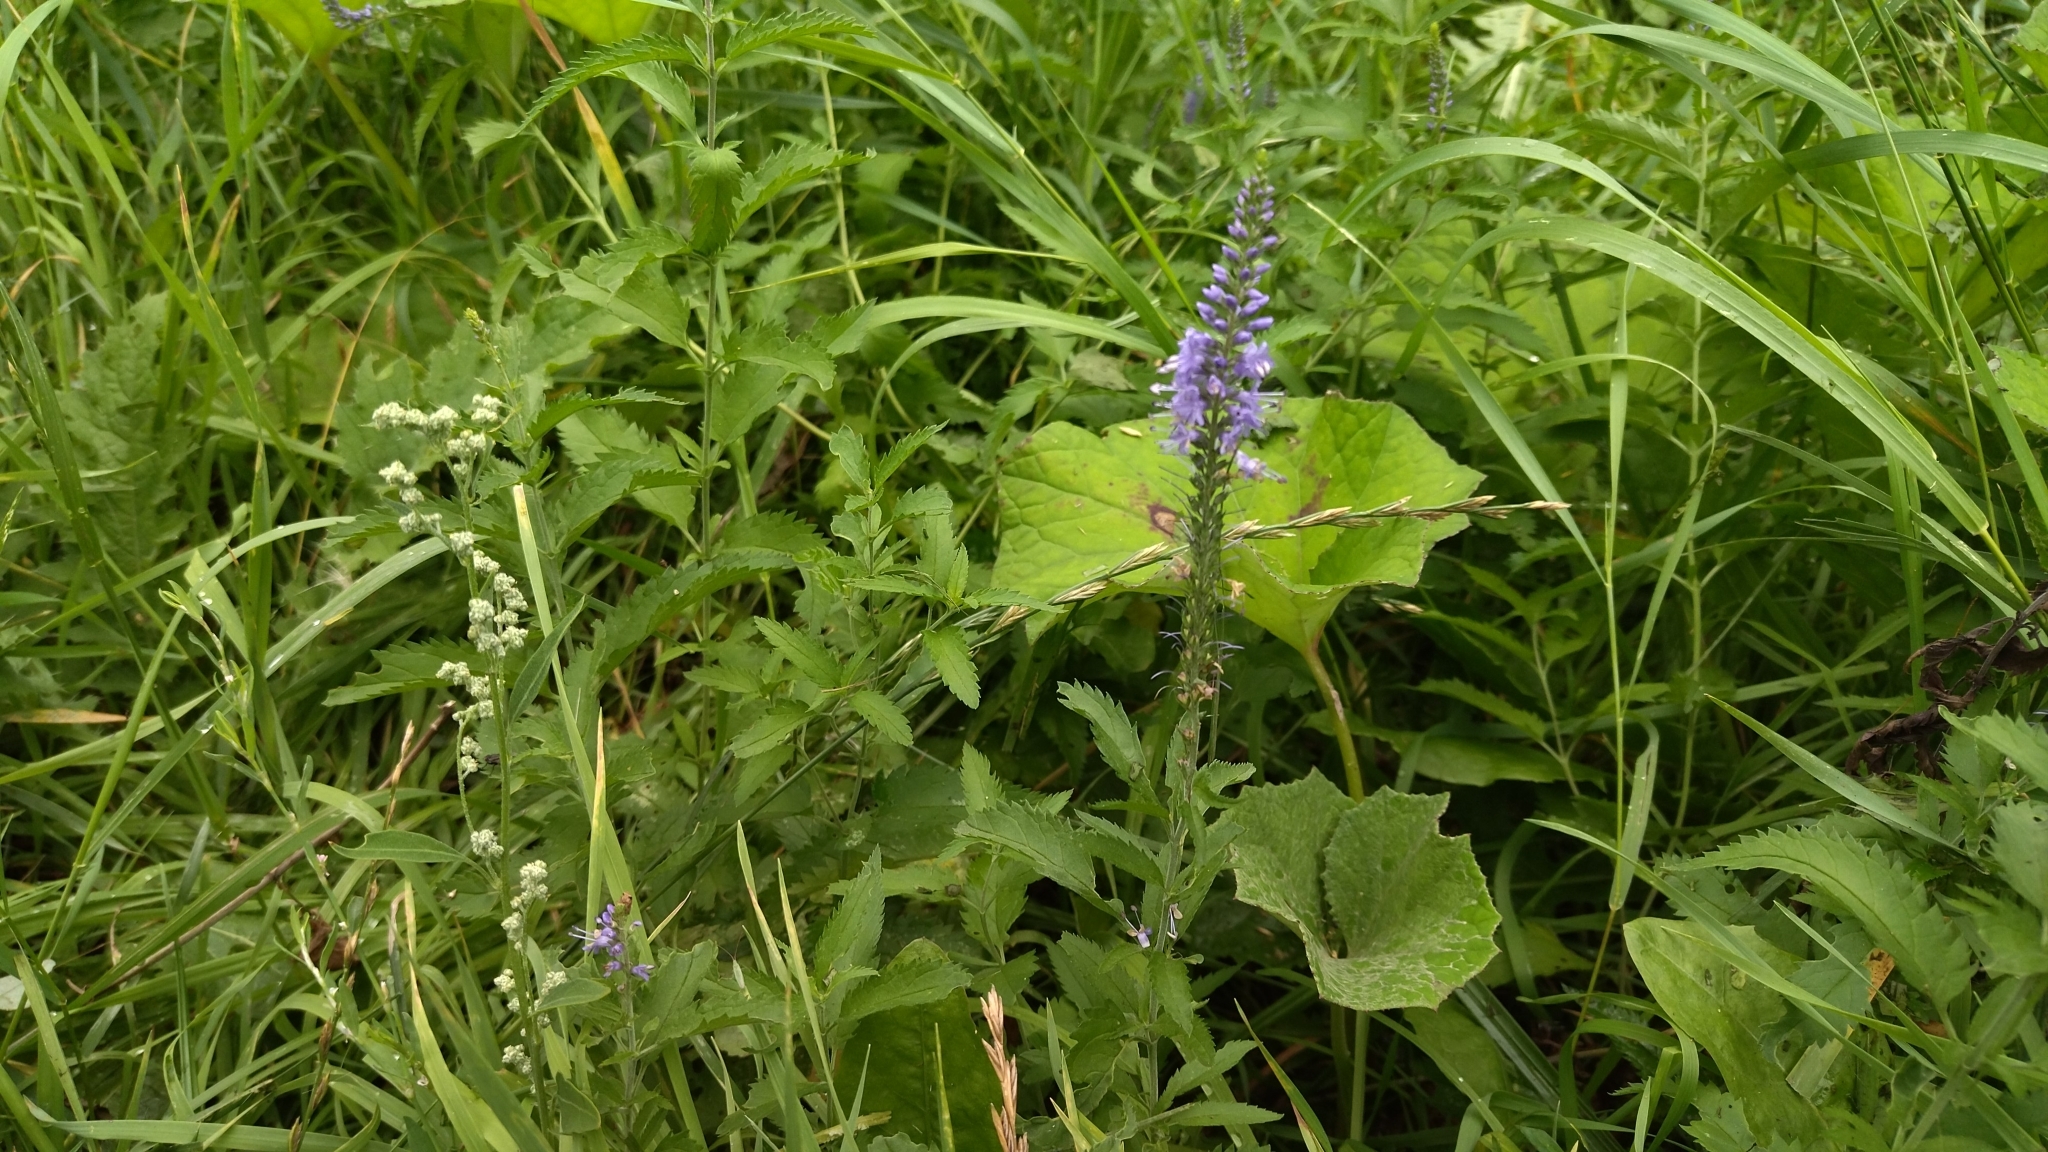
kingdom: Plantae
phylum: Tracheophyta
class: Magnoliopsida
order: Lamiales
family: Plantaginaceae
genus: Veronica
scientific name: Veronica longifolia
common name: Garden speedwell
